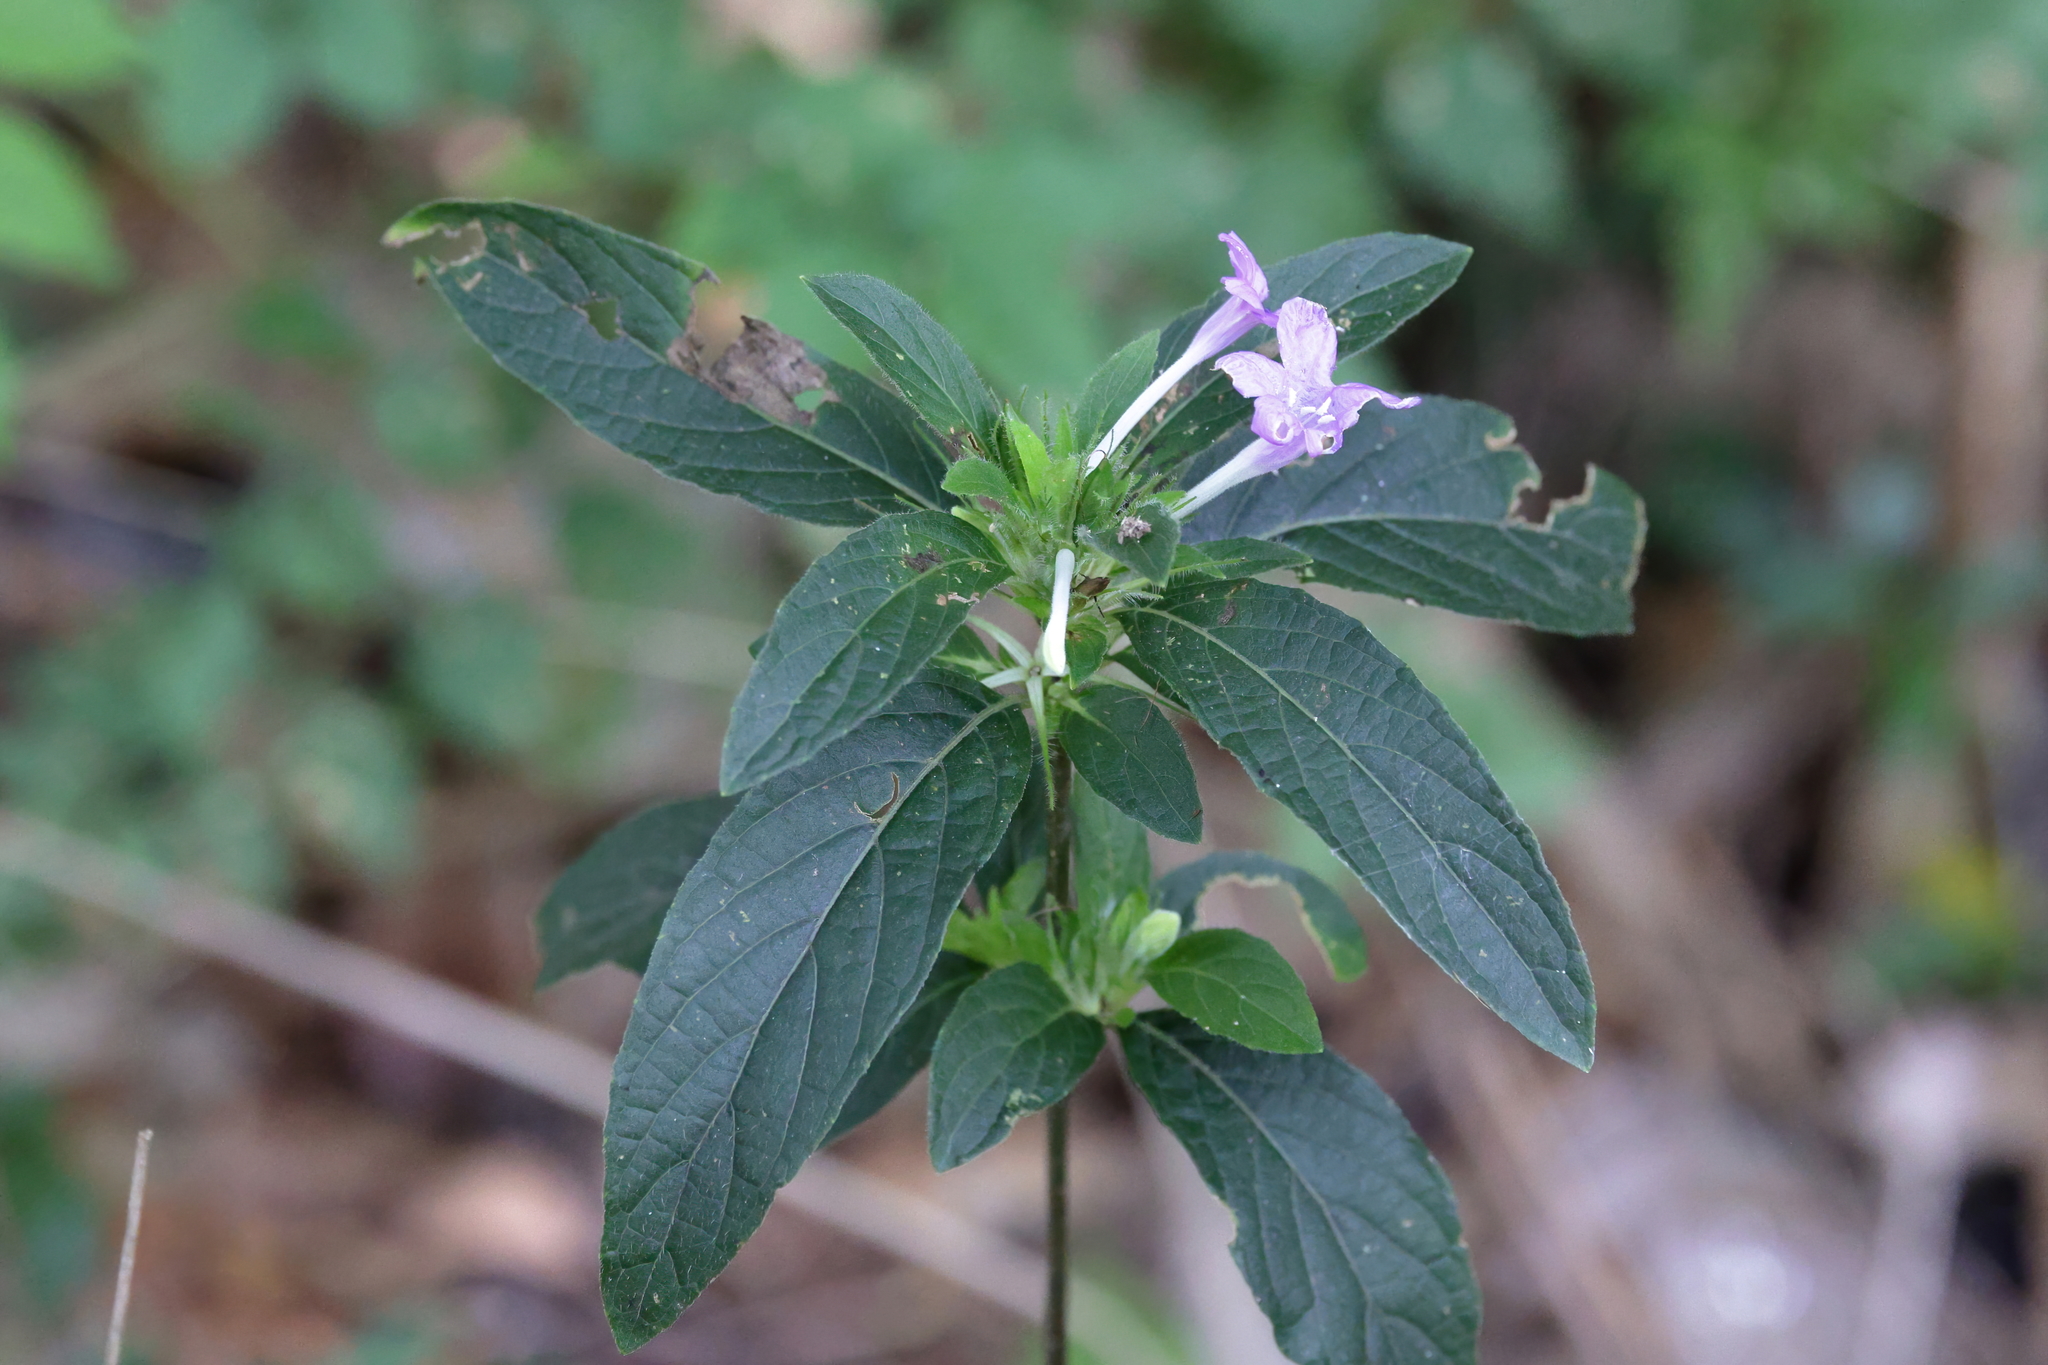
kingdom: Plantae
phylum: Tracheophyta
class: Magnoliopsida
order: Lamiales
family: Acanthaceae
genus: Ruellia
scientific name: Ruellia caroliniensis
